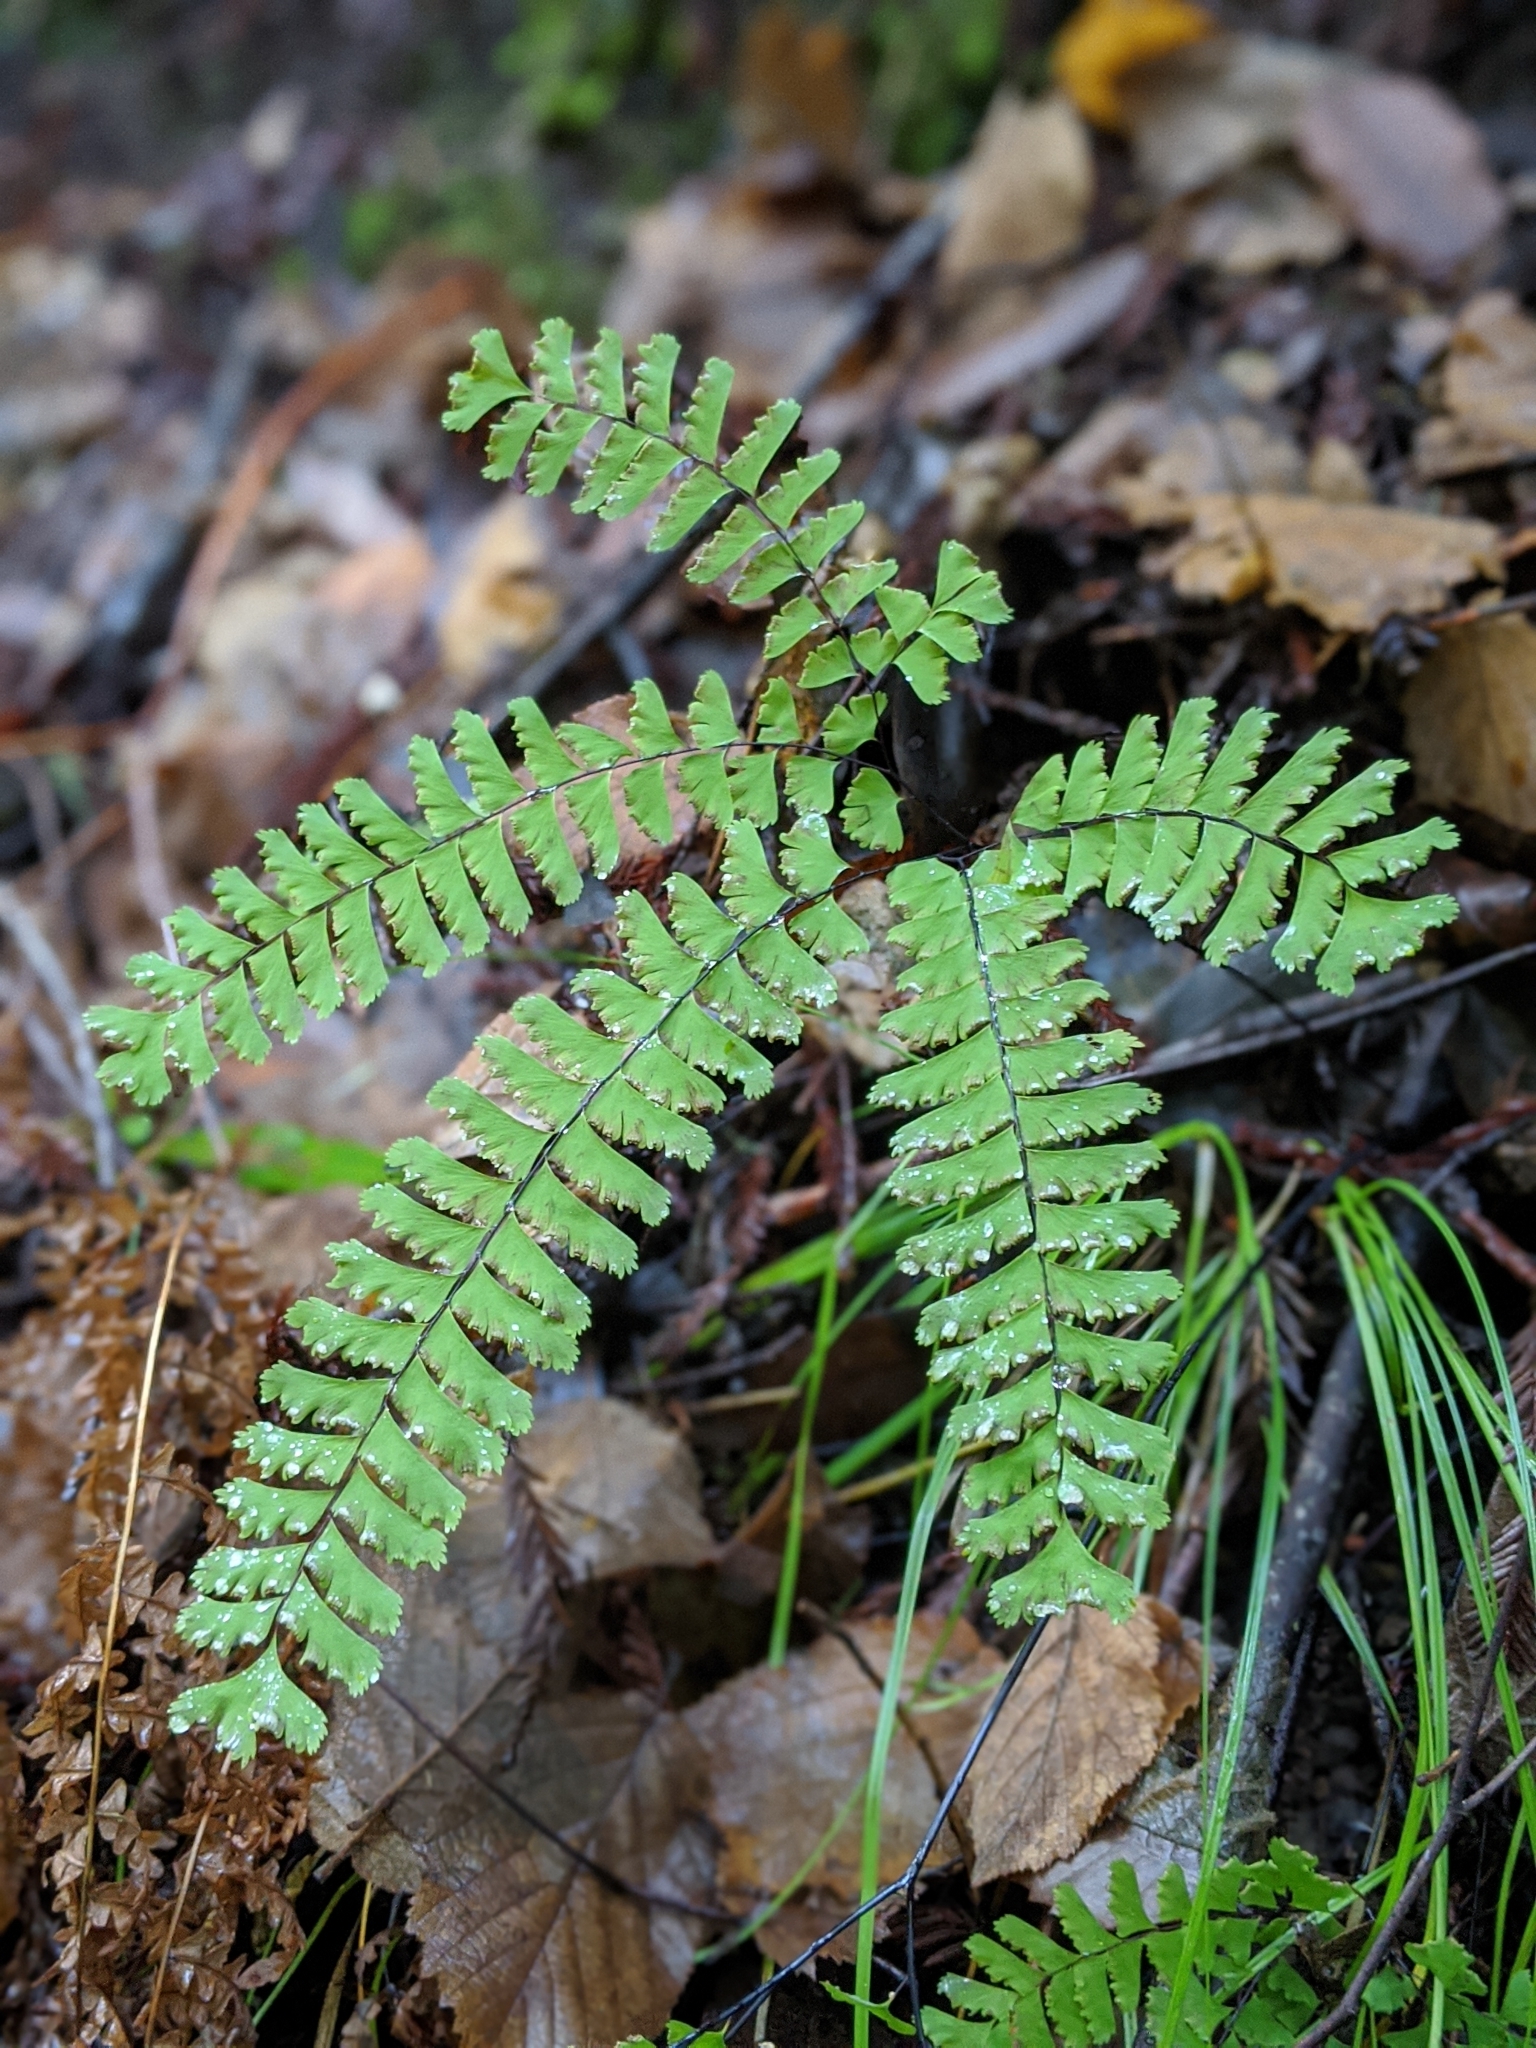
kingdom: Plantae
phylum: Tracheophyta
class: Polypodiopsida
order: Polypodiales
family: Pteridaceae
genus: Adiantum
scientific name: Adiantum aleuticum
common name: Aleutian maidenhair fern
